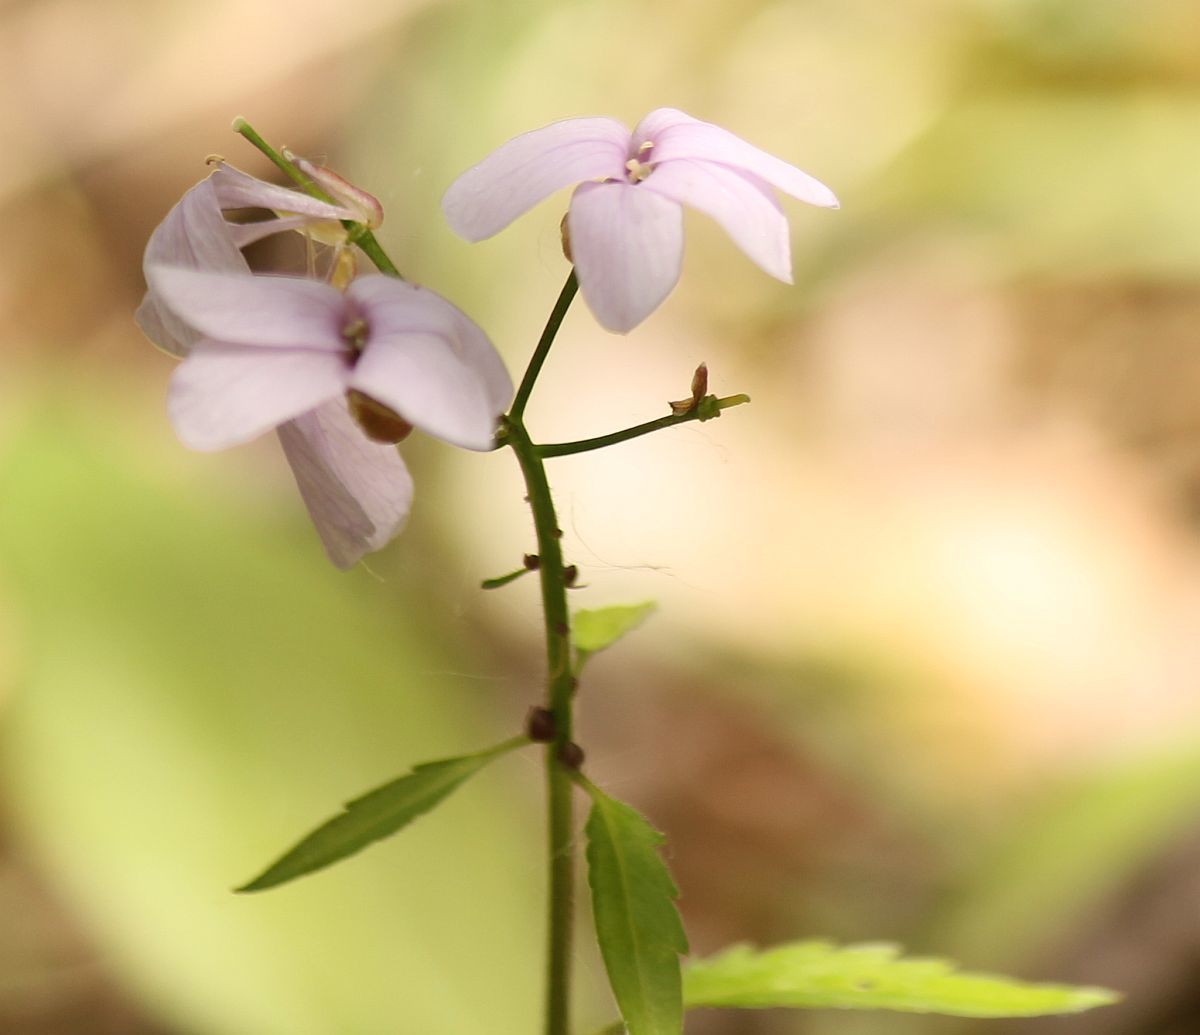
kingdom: Plantae
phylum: Tracheophyta
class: Magnoliopsida
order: Brassicales
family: Brassicaceae
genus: Cardamine
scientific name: Cardamine bulbifera
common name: Coralroot bittercress
